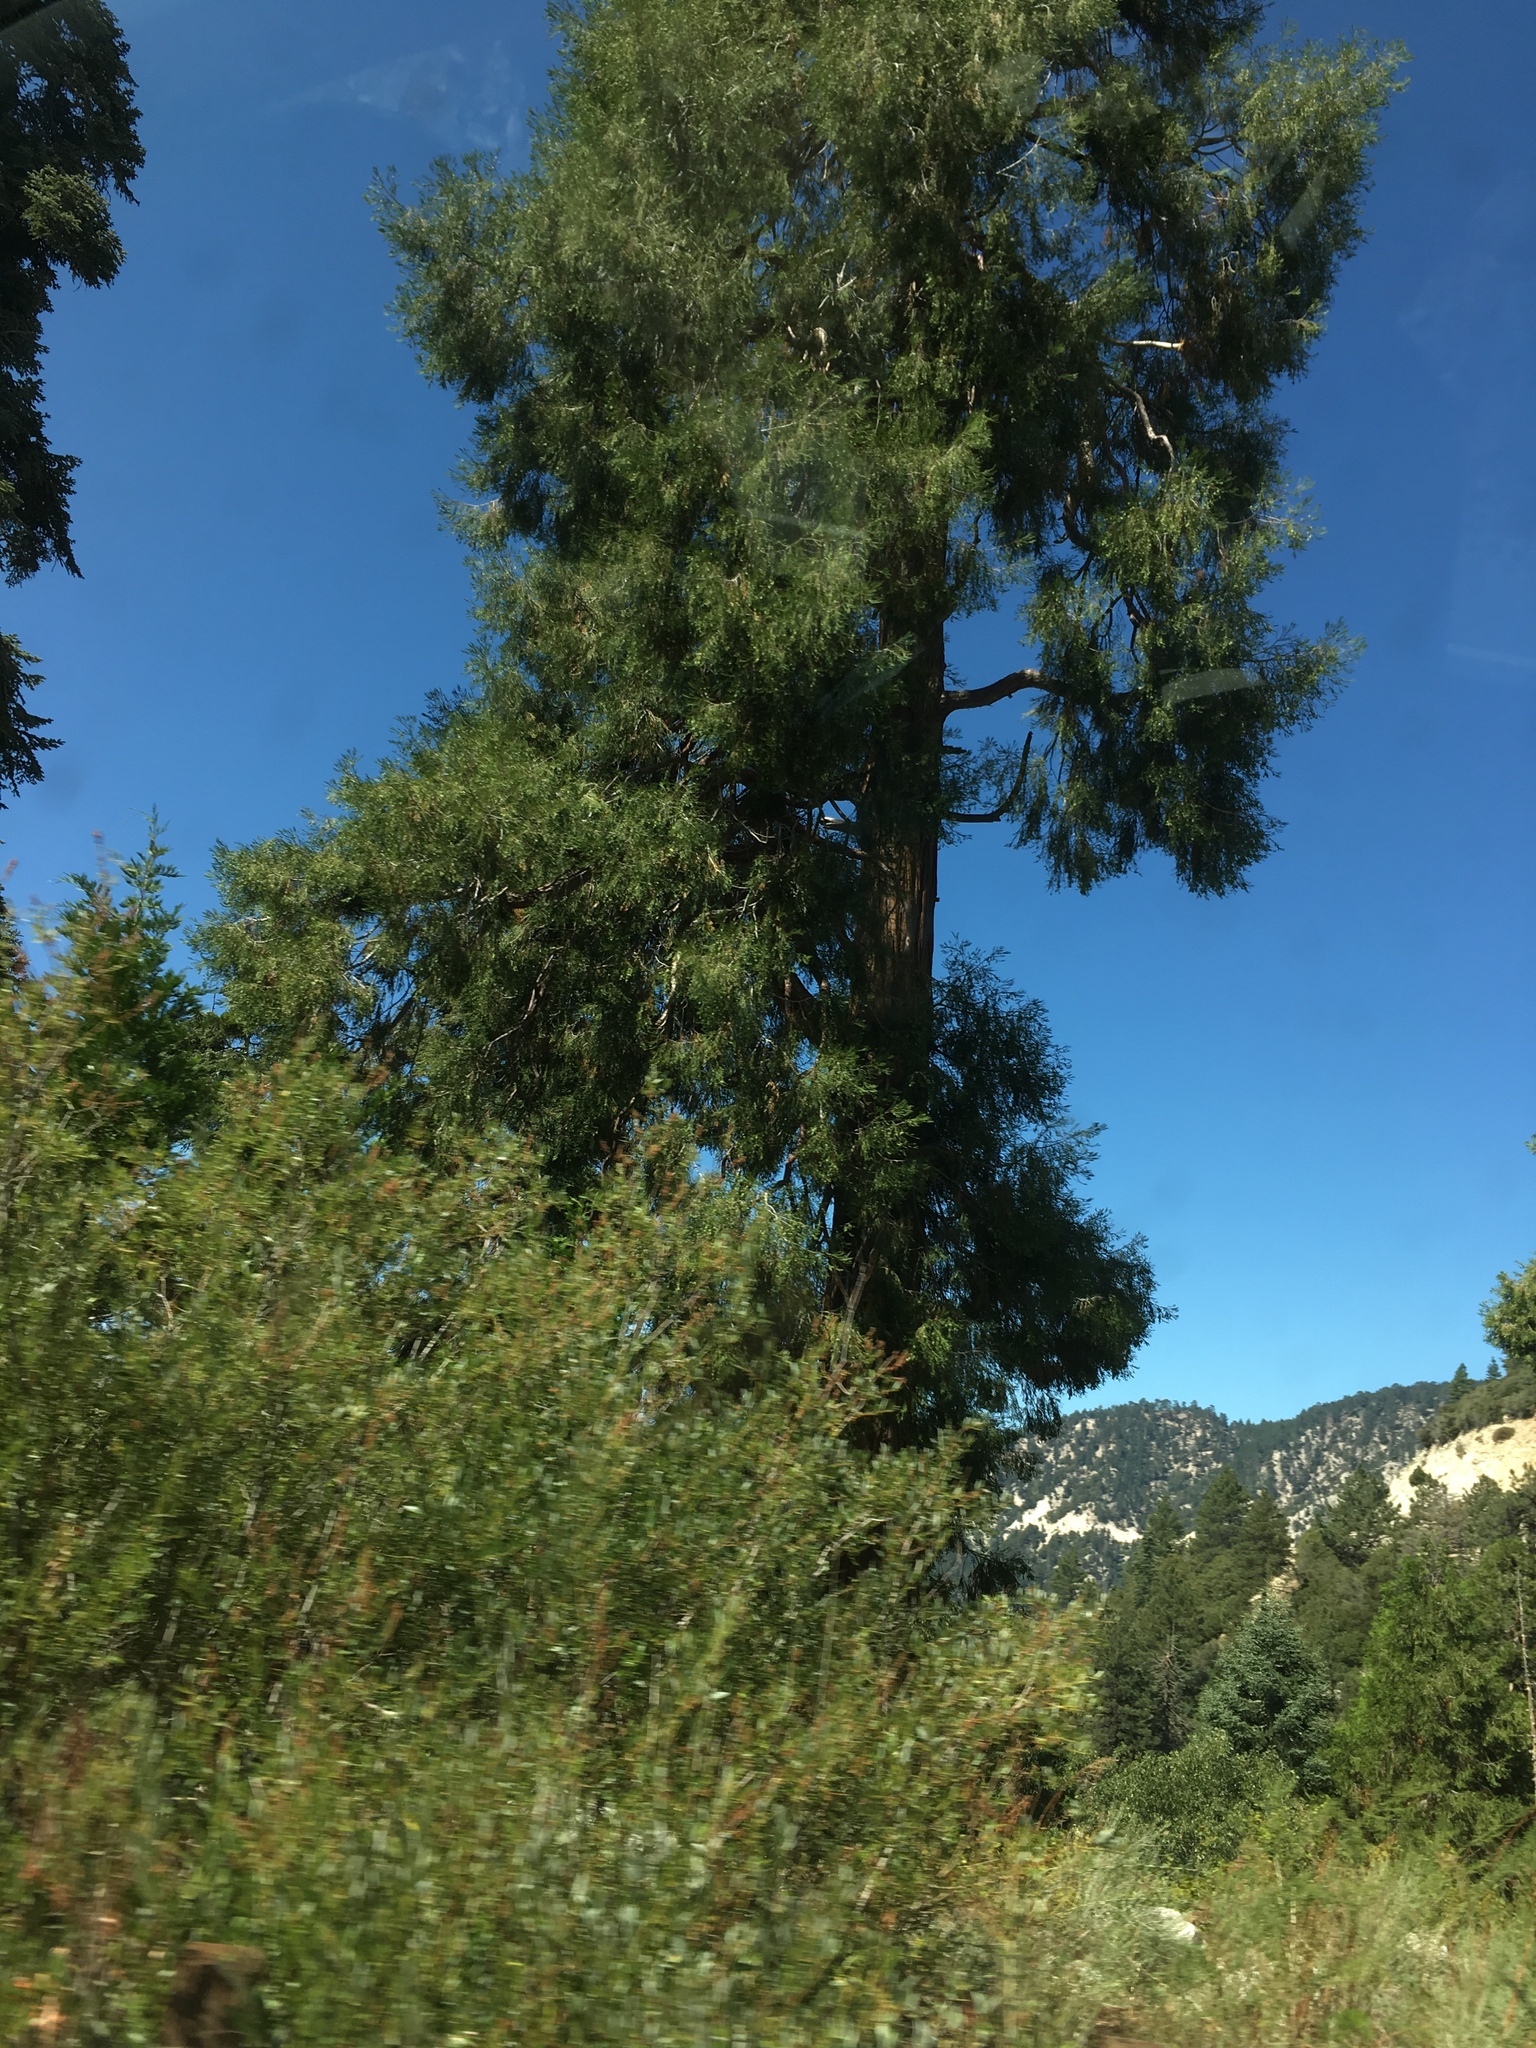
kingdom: Plantae
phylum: Tracheophyta
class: Pinopsida
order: Pinales
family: Cupressaceae
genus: Calocedrus
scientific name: Calocedrus decurrens
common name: Californian incense-cedar
